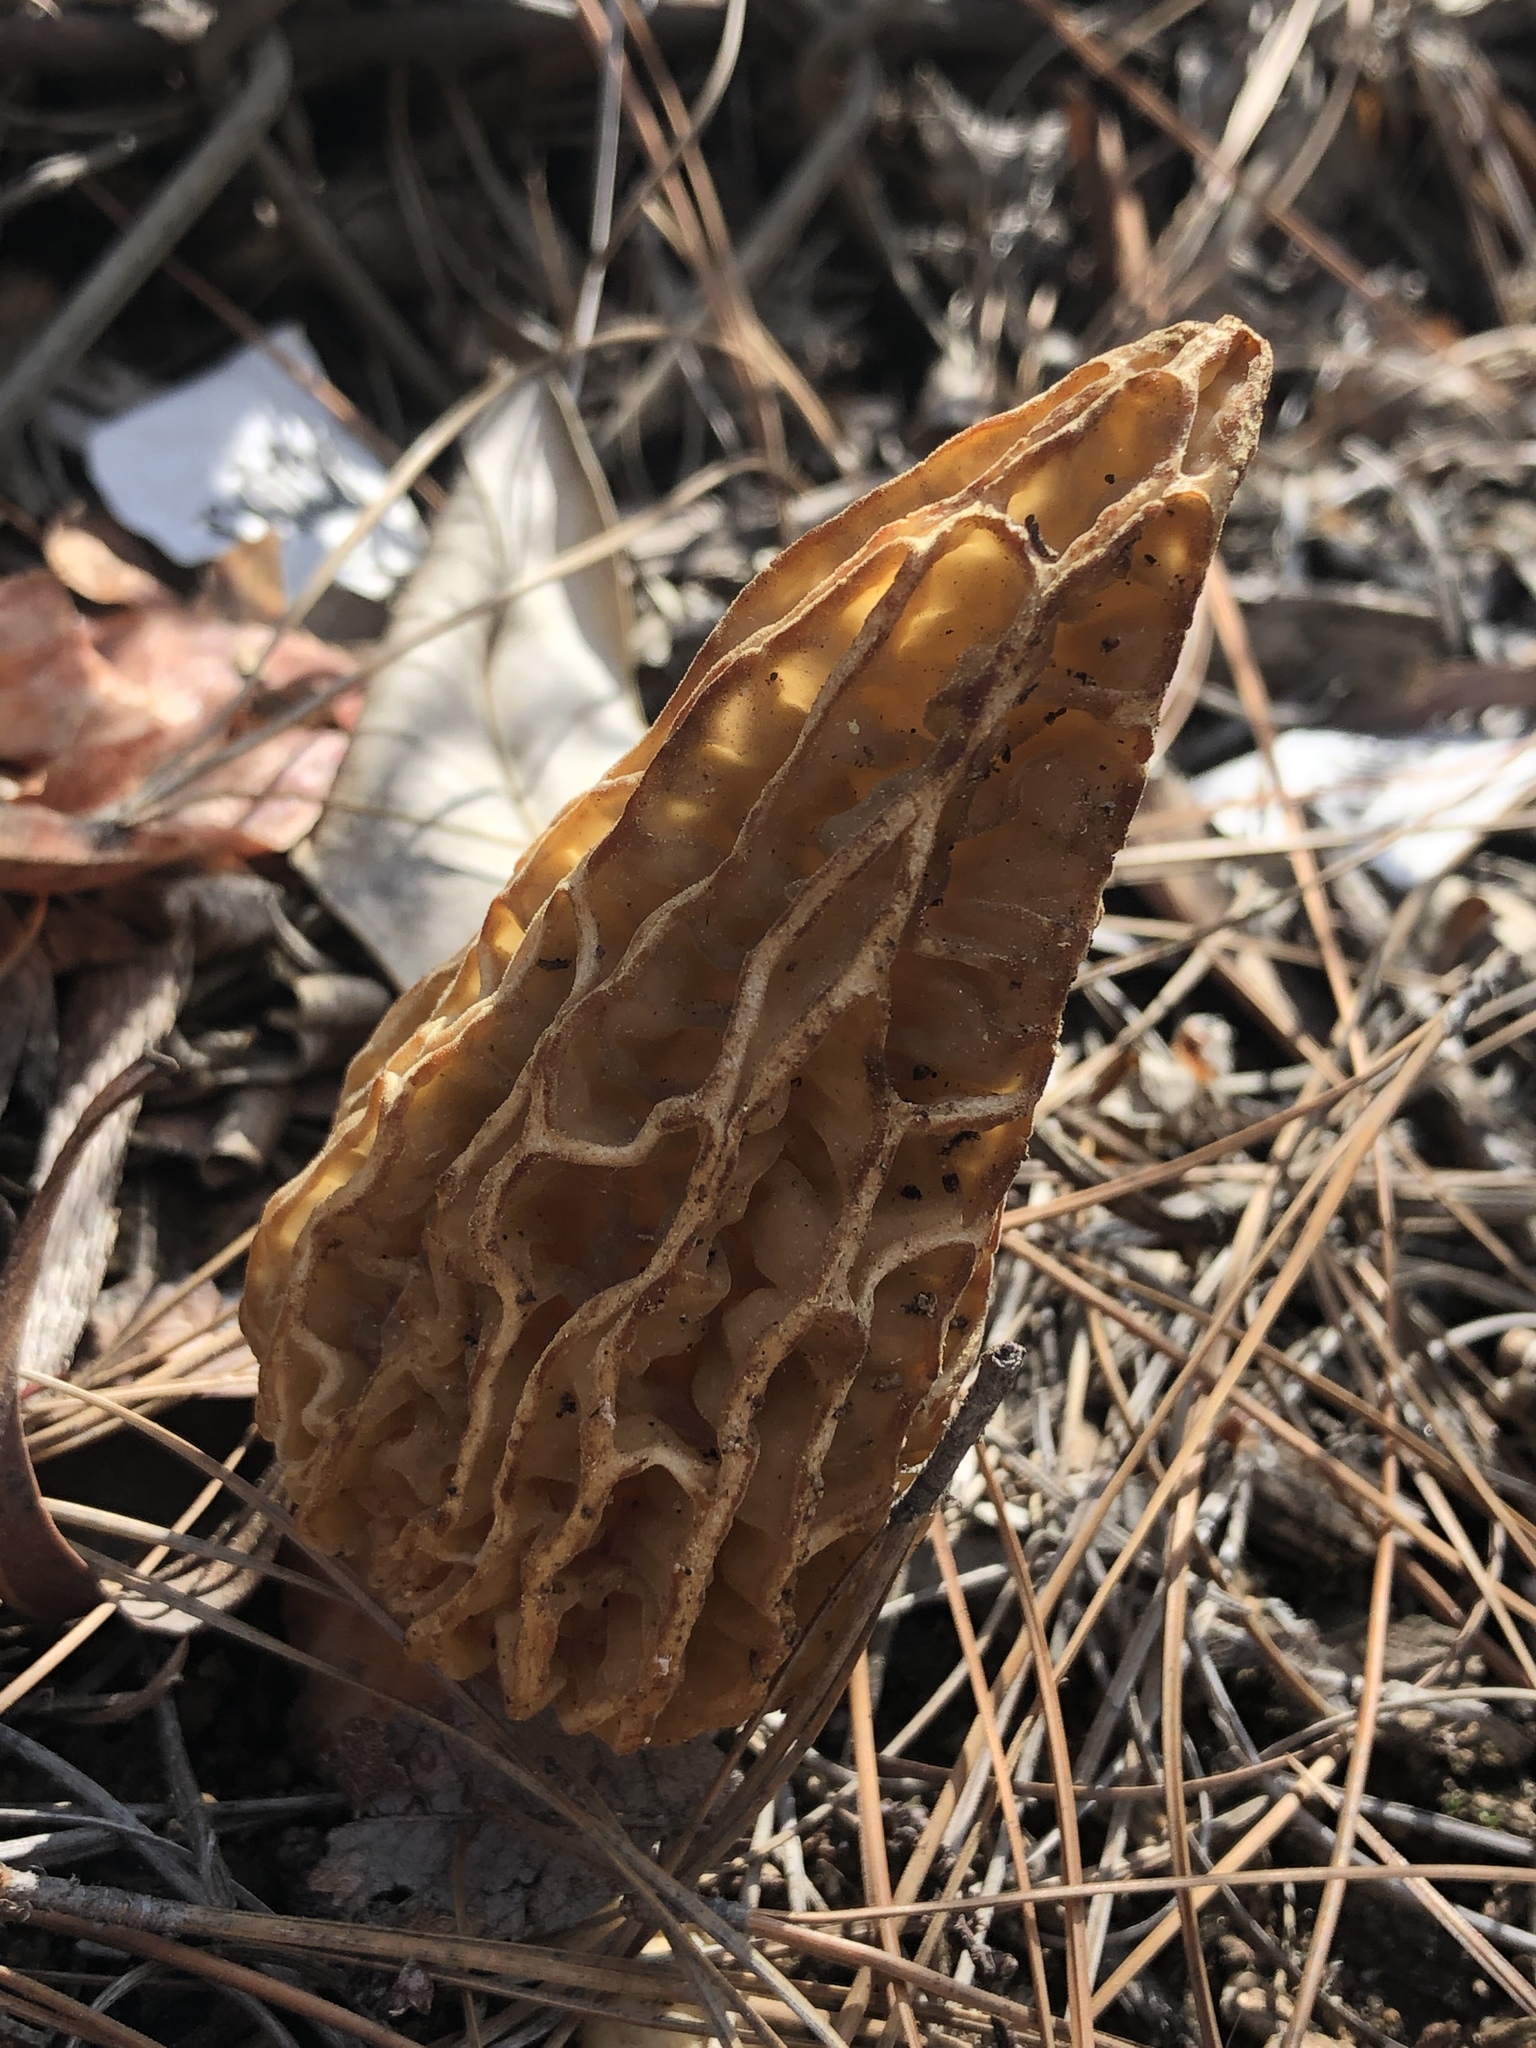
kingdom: Fungi
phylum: Ascomycota
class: Pezizomycetes
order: Pezizales
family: Morchellaceae
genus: Morchella
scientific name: Morchella rufobrunnea
